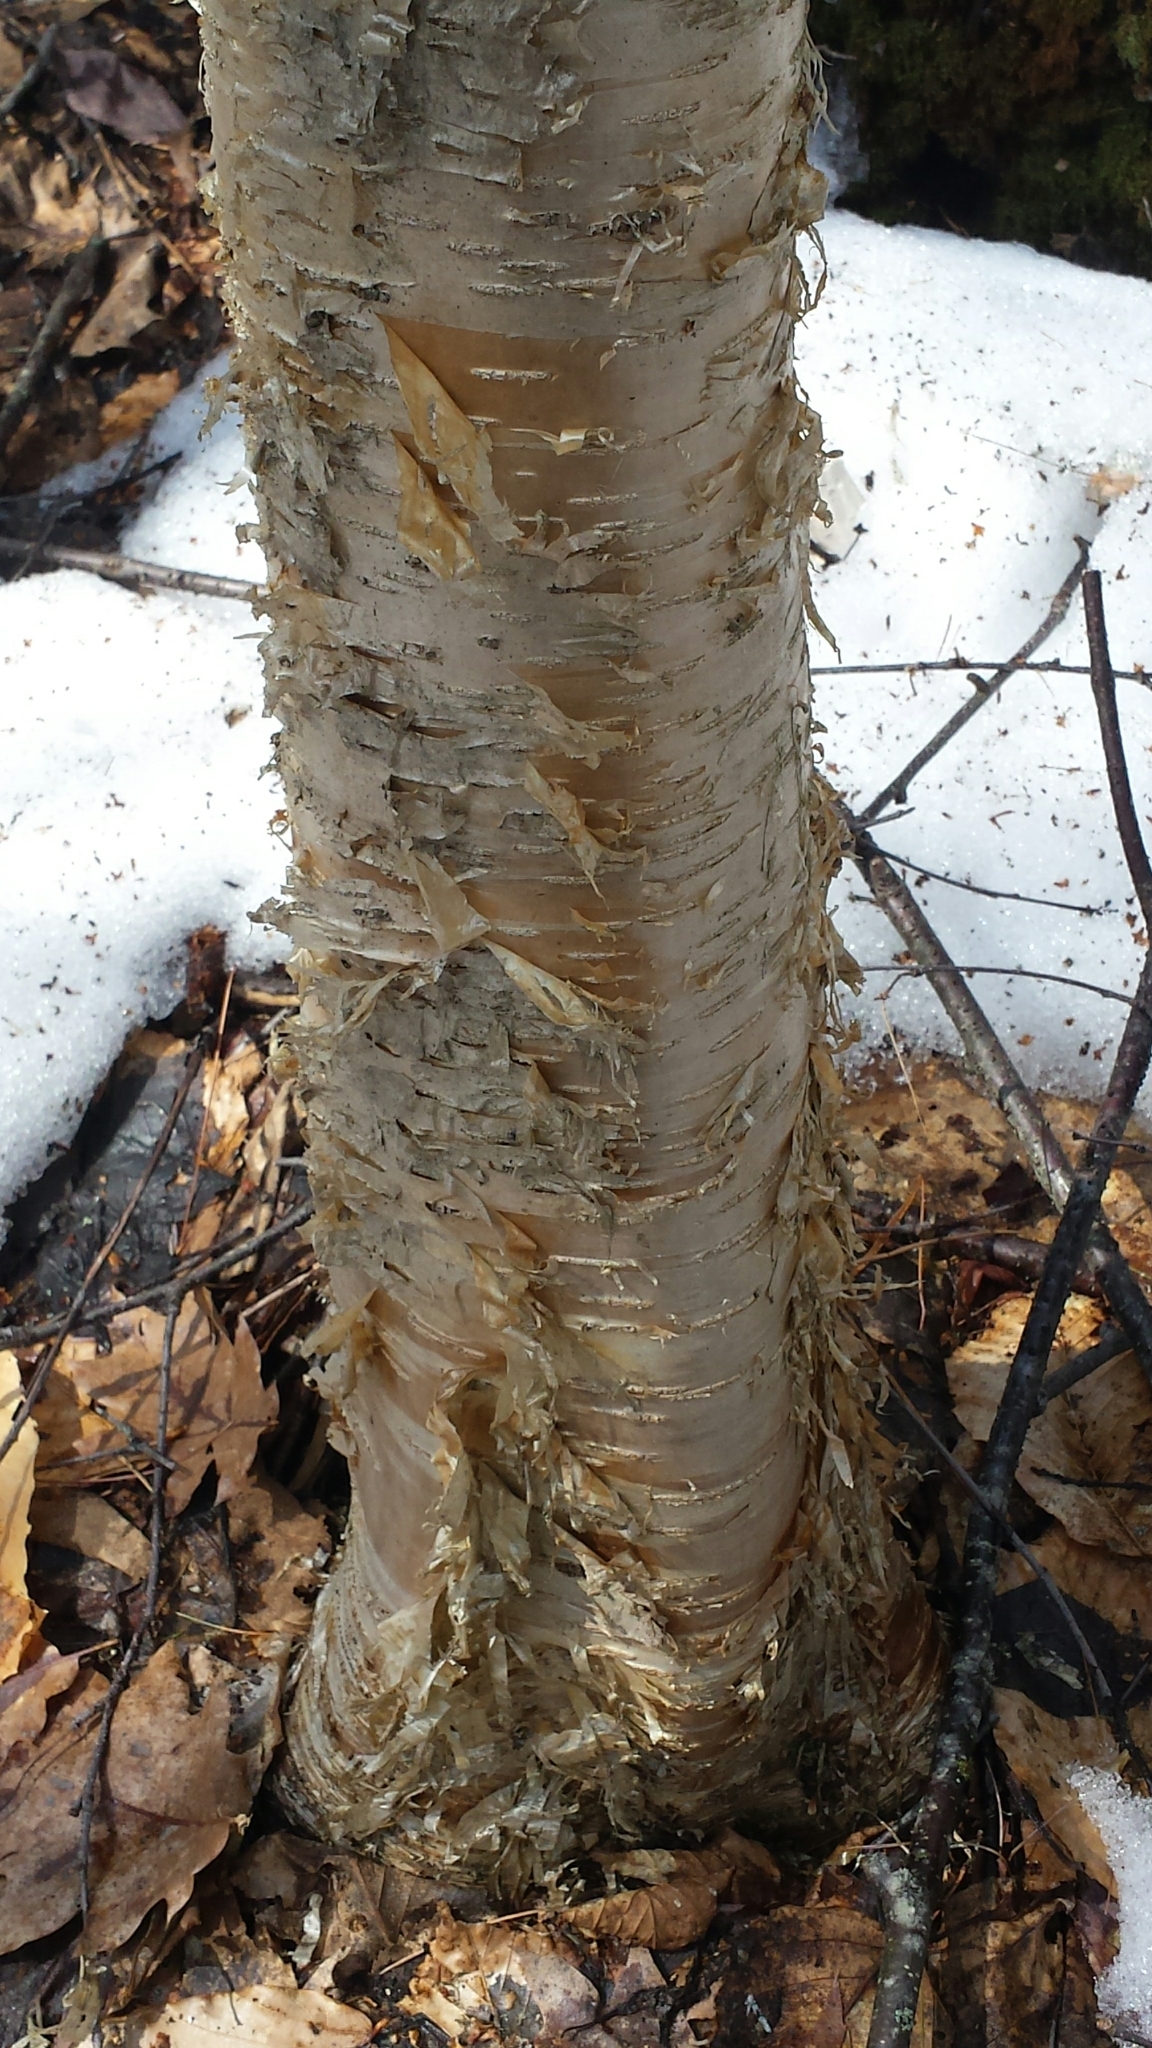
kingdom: Plantae
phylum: Tracheophyta
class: Magnoliopsida
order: Fagales
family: Betulaceae
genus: Betula
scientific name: Betula alleghaniensis
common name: Yellow birch
